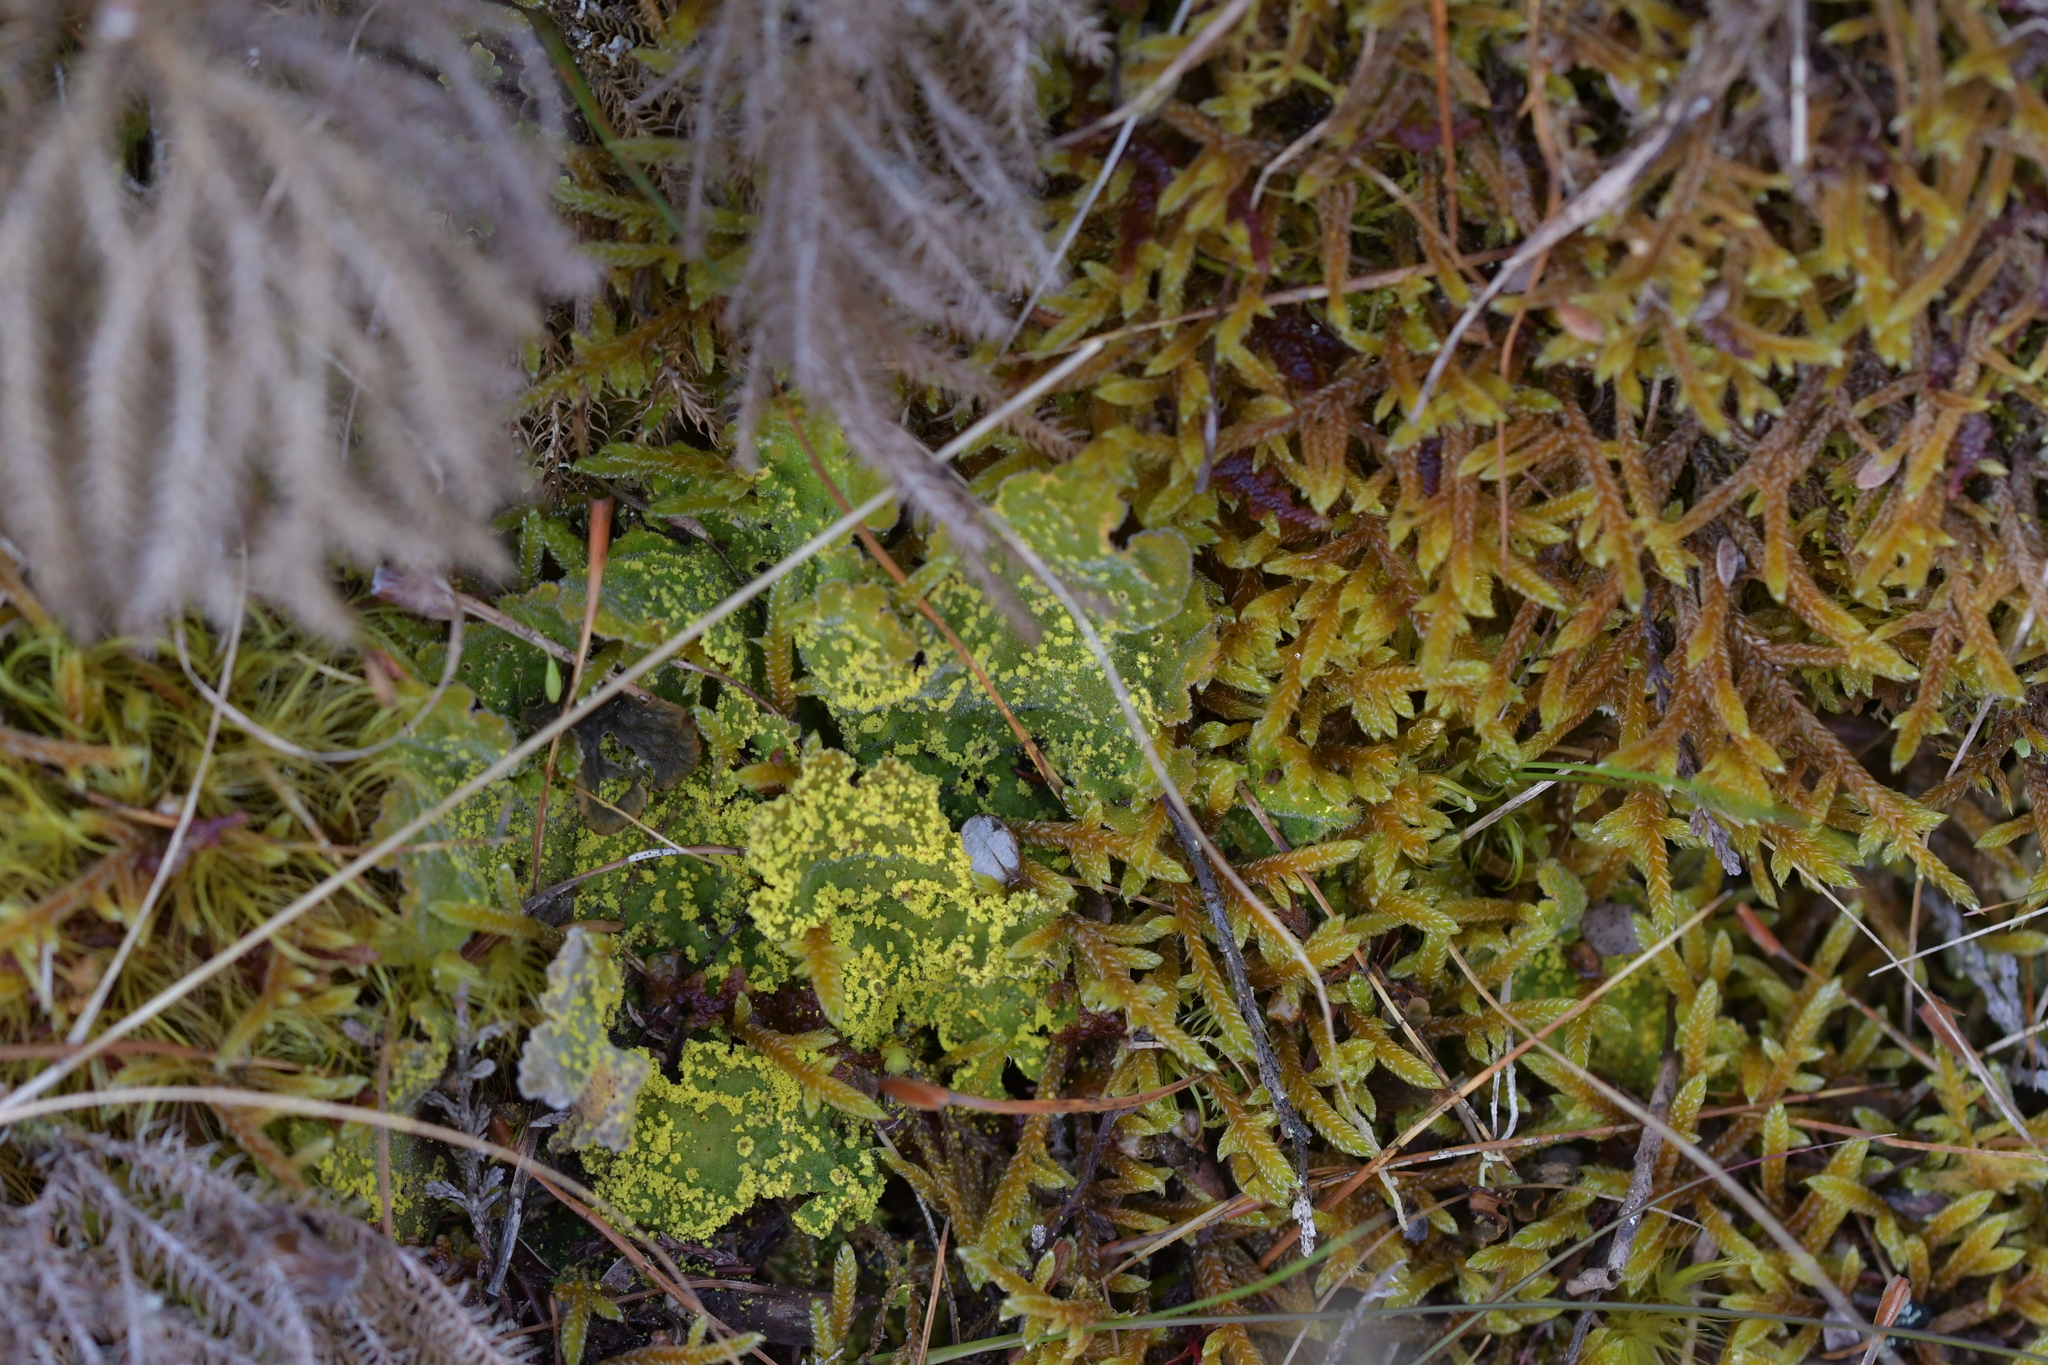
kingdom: Fungi
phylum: Ascomycota
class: Lecanoromycetes
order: Peltigerales
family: Lobariaceae
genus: Pseudocyphellaria
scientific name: Pseudocyphellaria rubella
